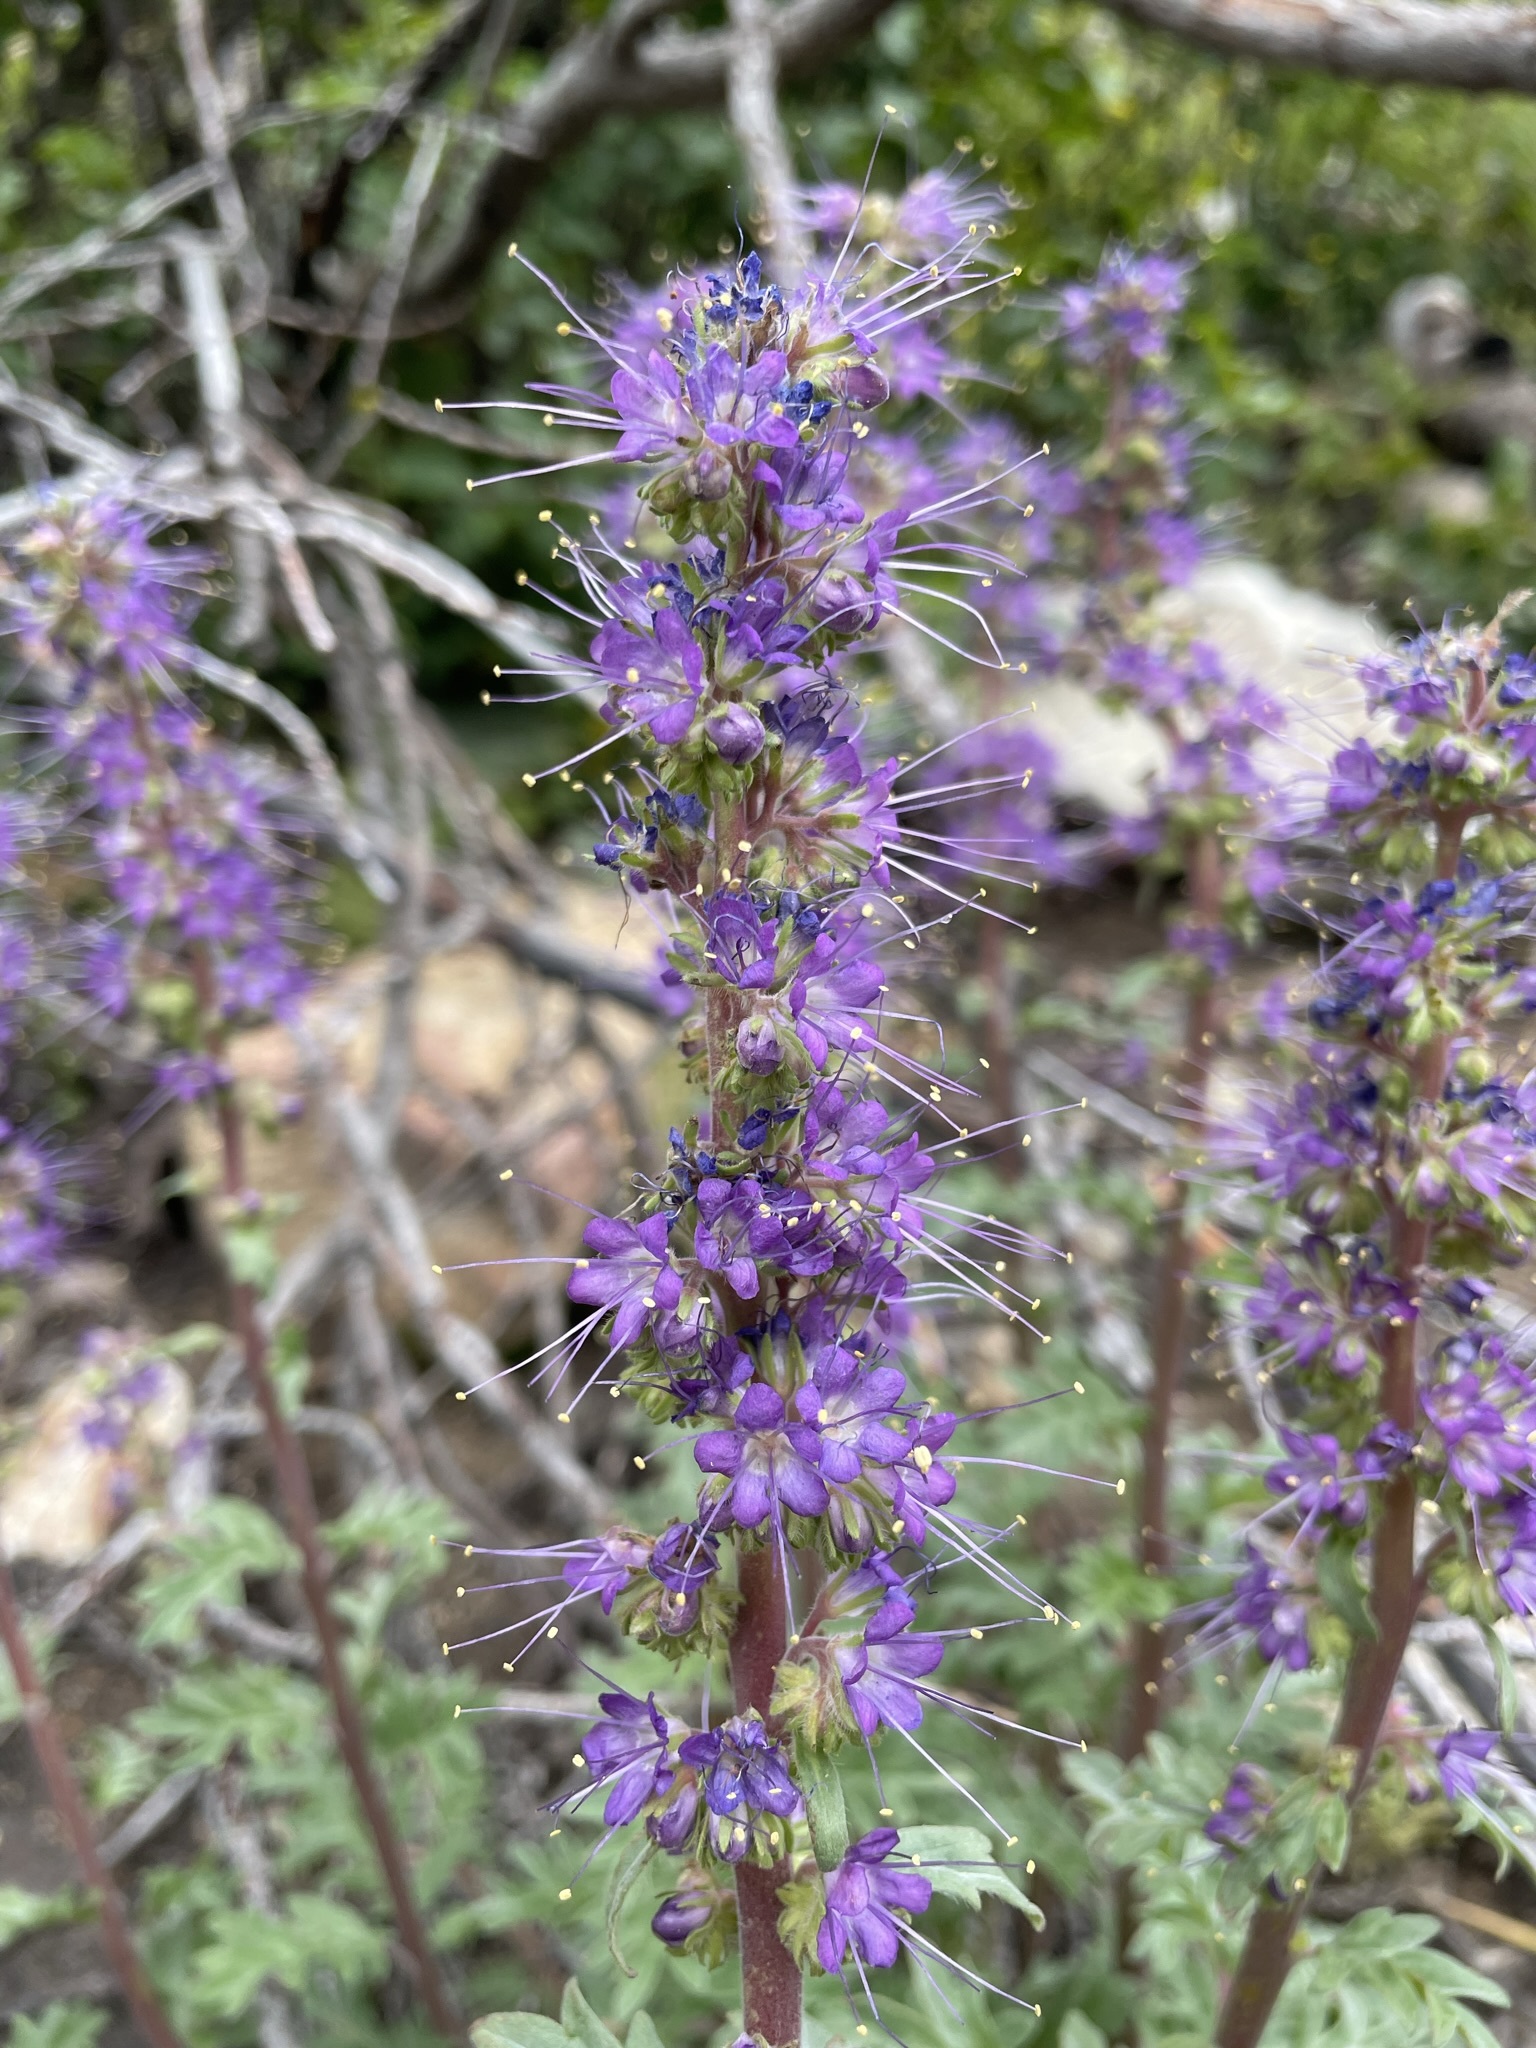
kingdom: Plantae
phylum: Tracheophyta
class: Magnoliopsida
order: Boraginales
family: Hydrophyllaceae
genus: Phacelia
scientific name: Phacelia sericea
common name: Silky phacelia
